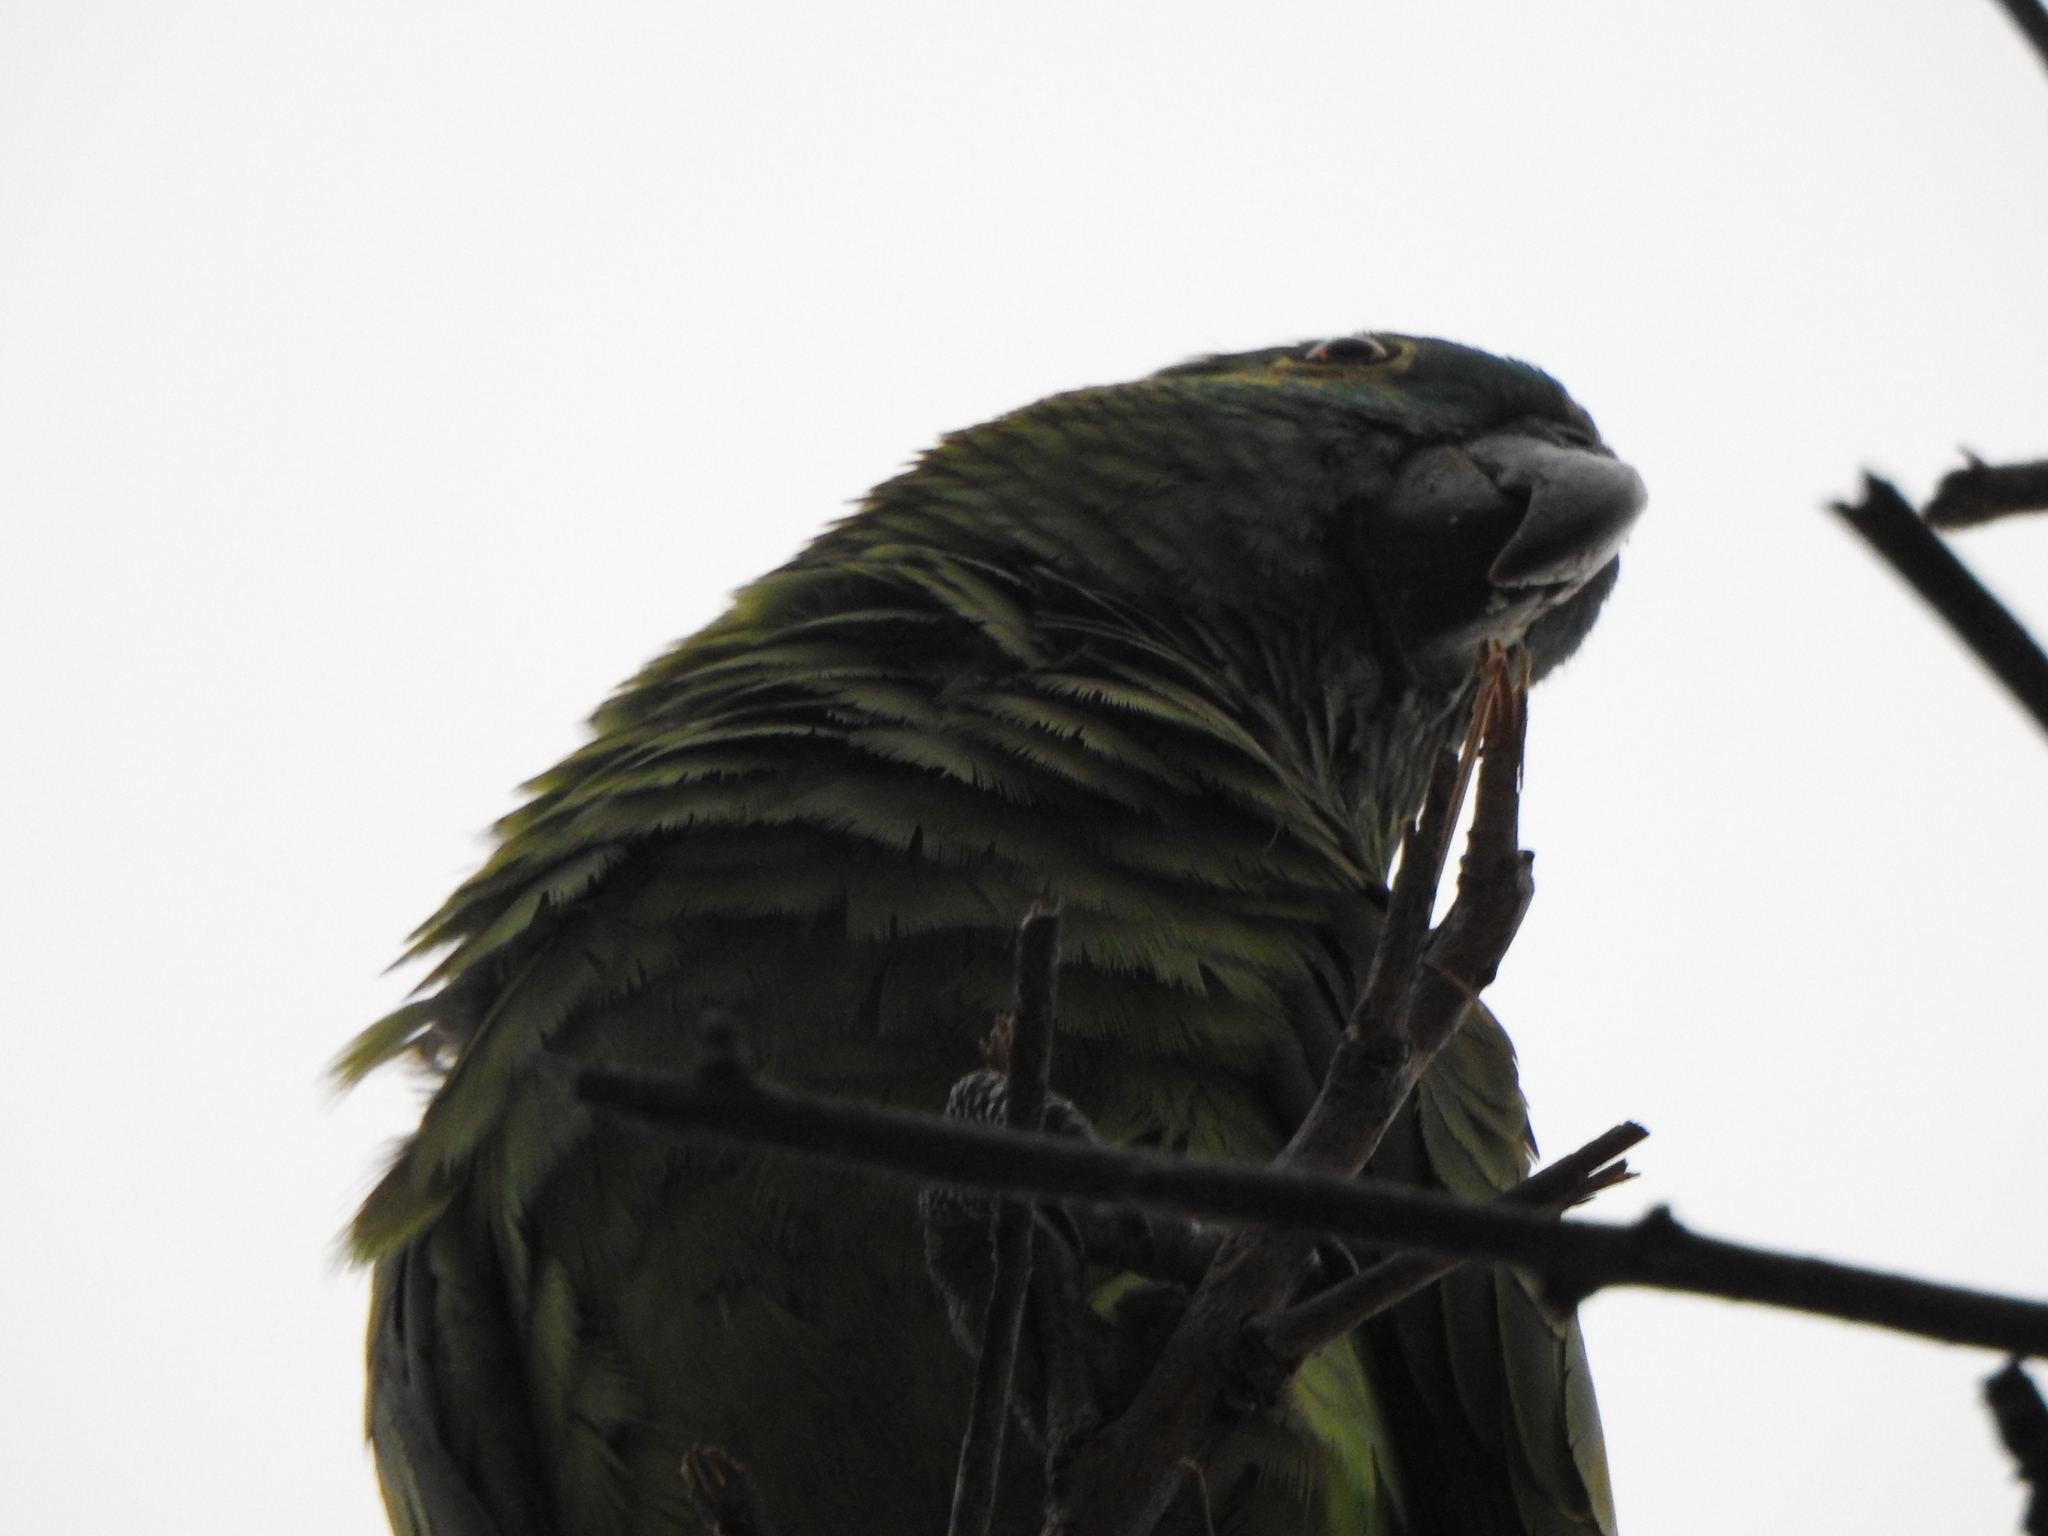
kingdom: Animalia
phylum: Chordata
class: Aves
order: Psittaciformes
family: Psittacidae
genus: Amazona
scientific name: Amazona aestiva
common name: Turquoise-fronted amazon
